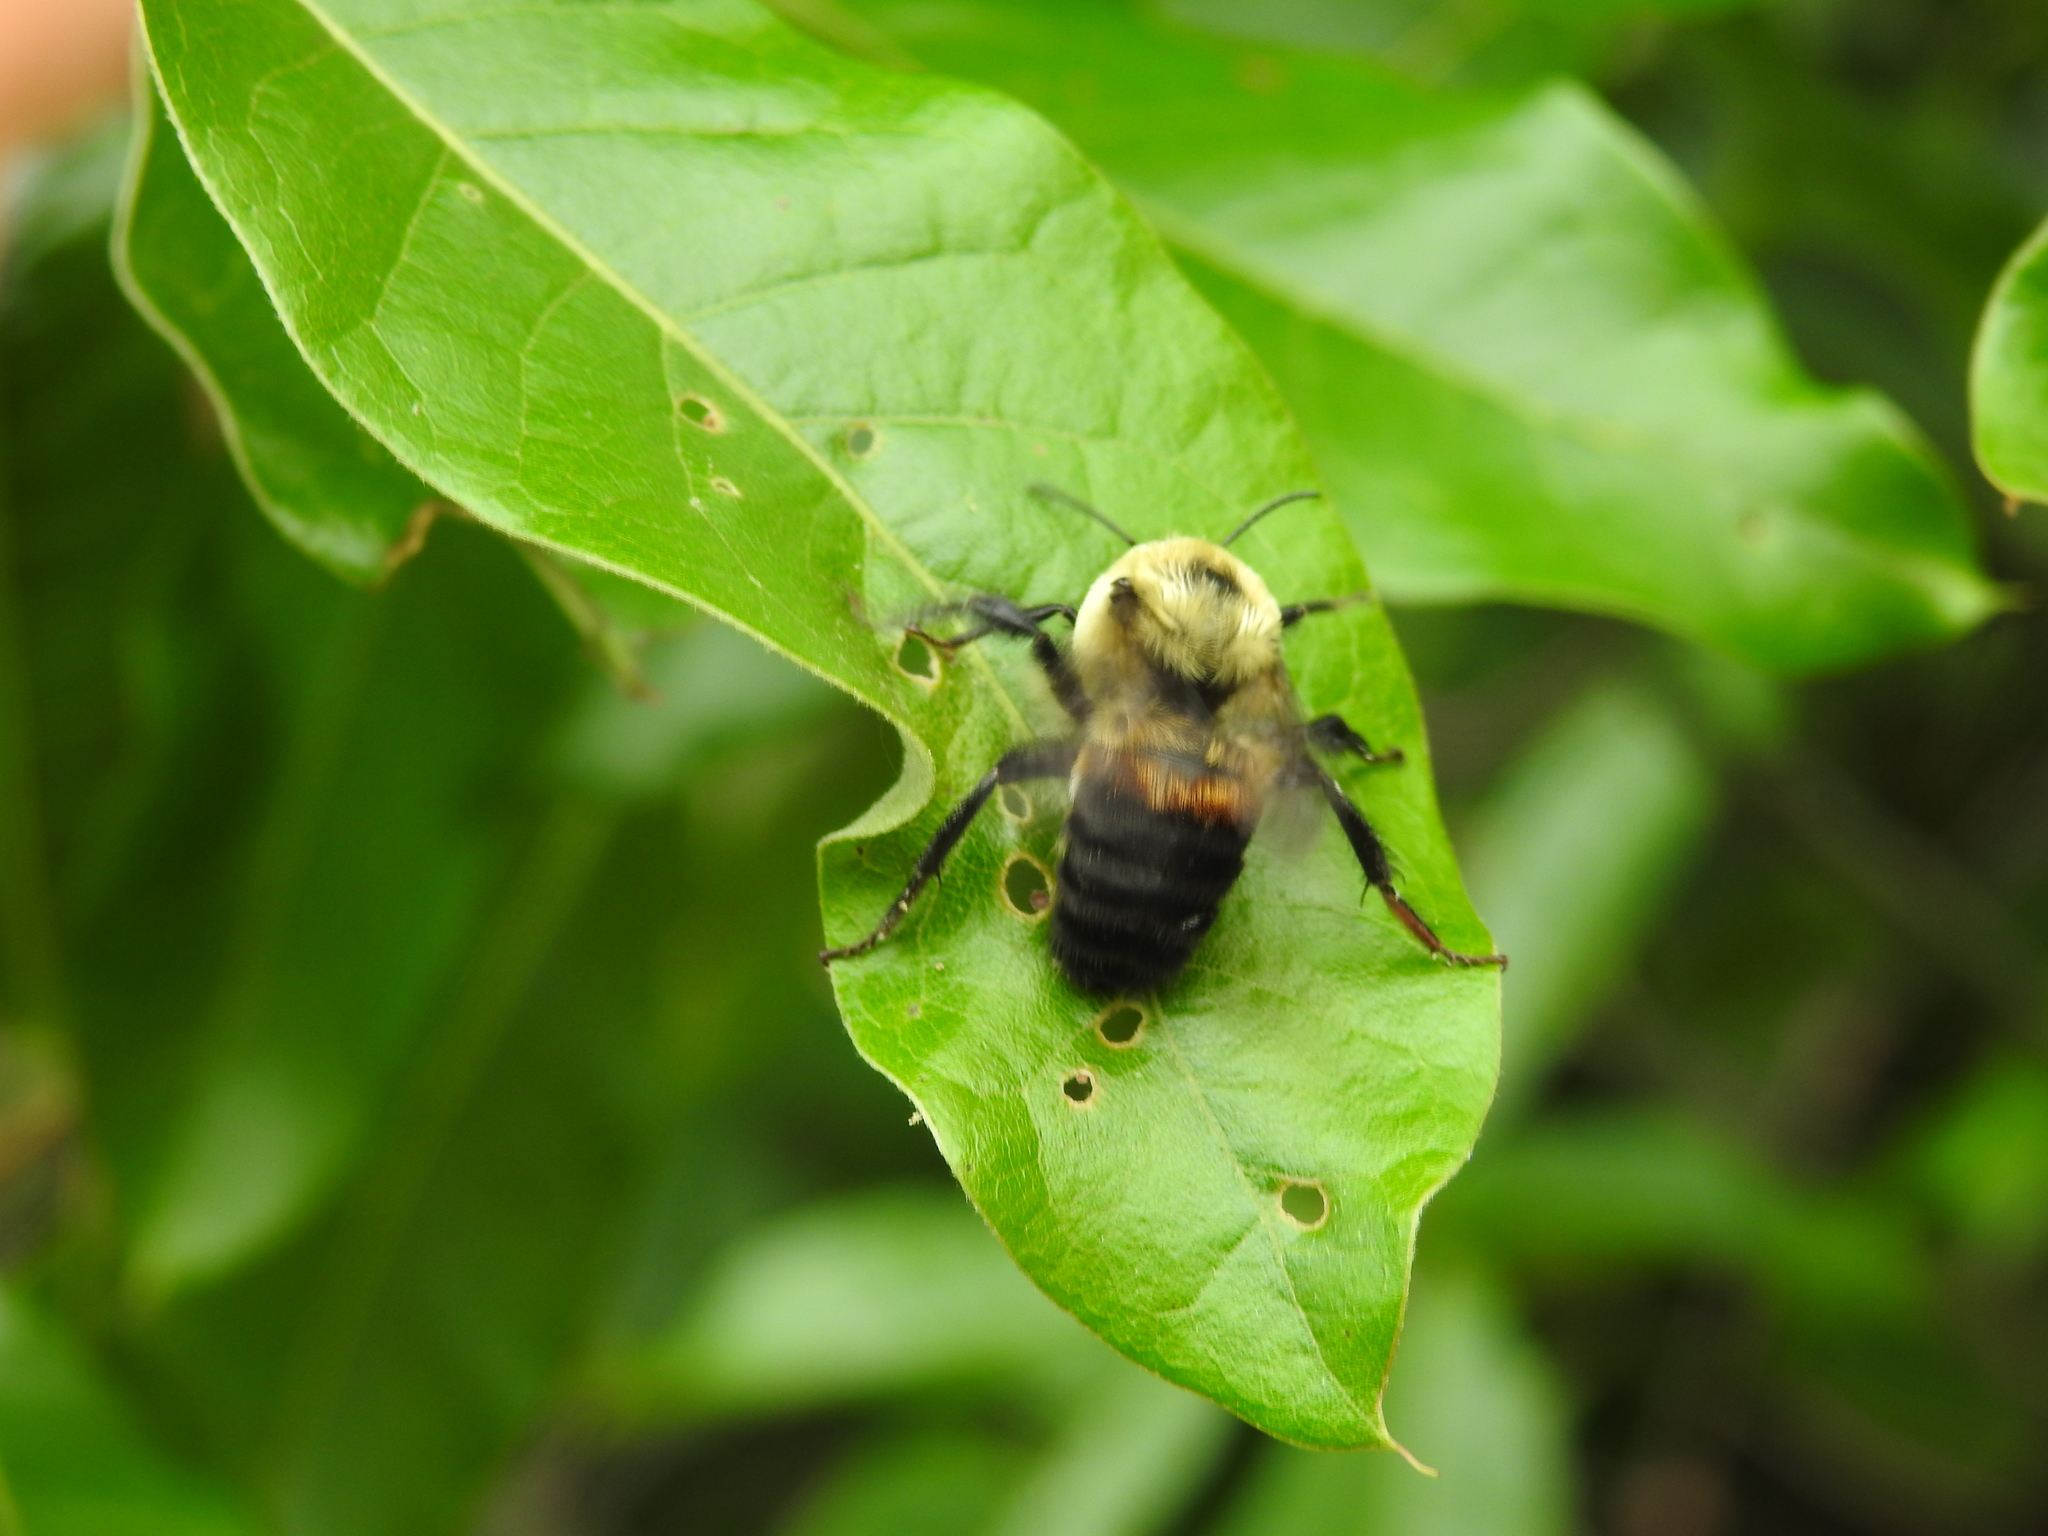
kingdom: Animalia
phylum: Arthropoda
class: Insecta
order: Hymenoptera
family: Apidae
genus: Bombus
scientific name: Bombus griseocollis
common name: Brown-belted bumble bee
